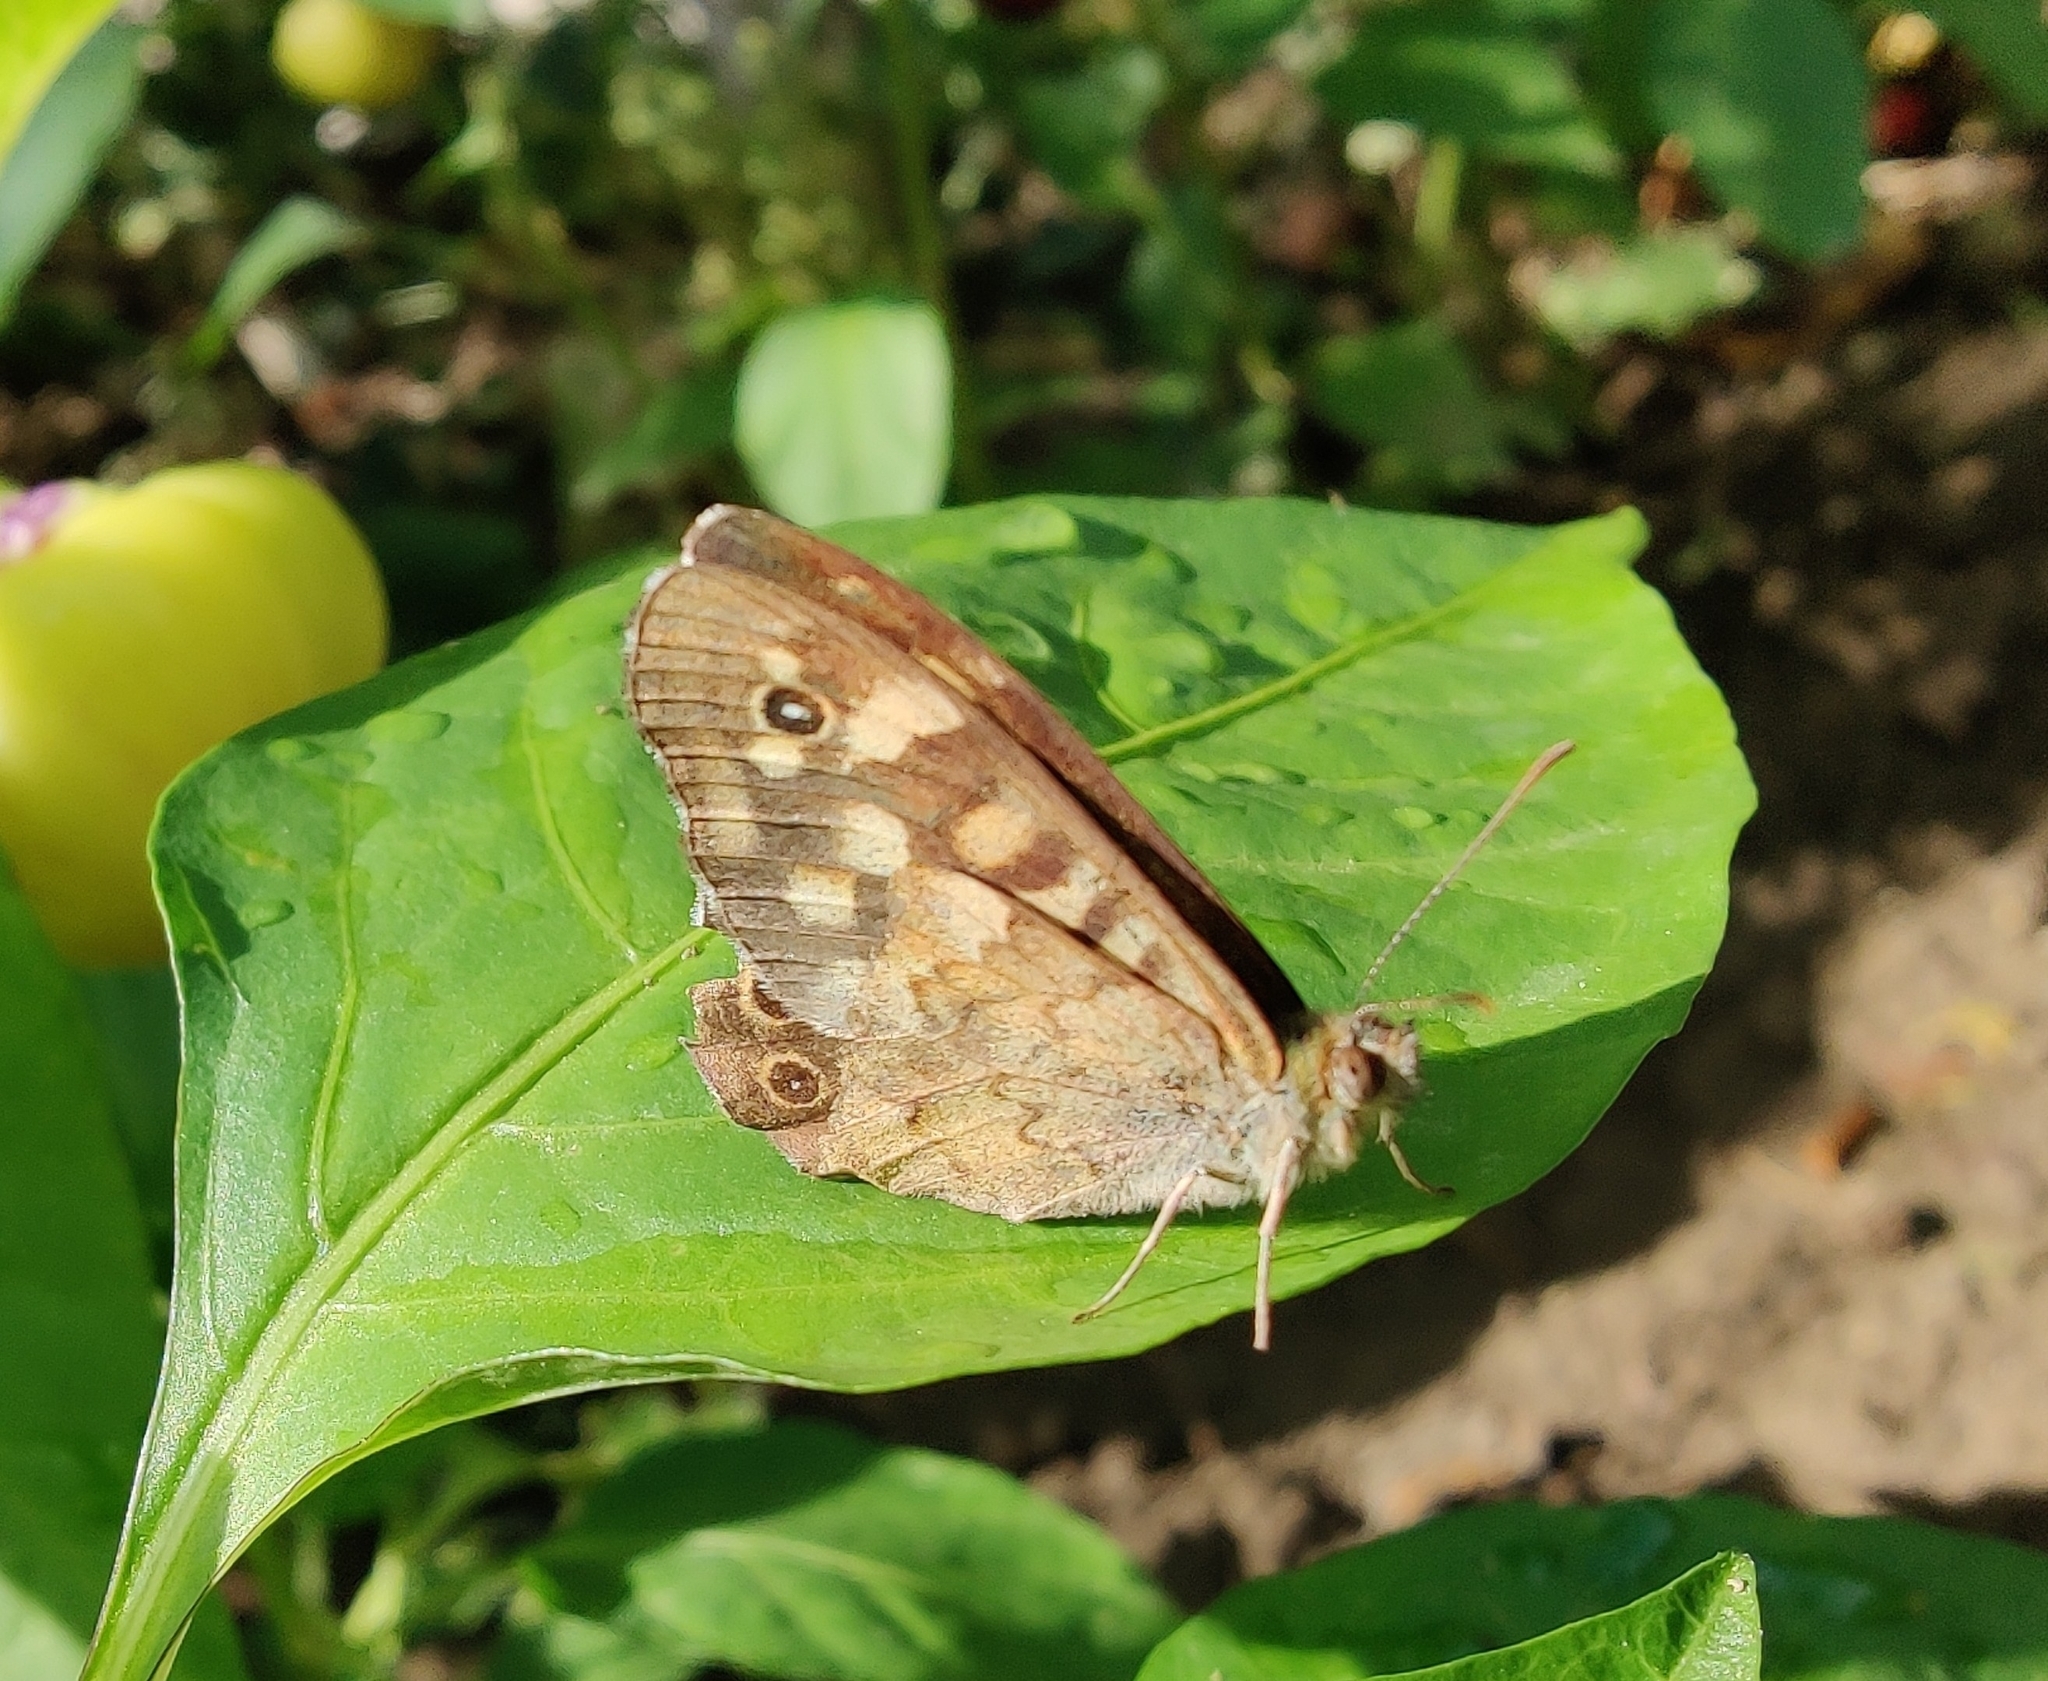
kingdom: Animalia
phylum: Arthropoda
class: Insecta
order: Lepidoptera
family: Nymphalidae
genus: Pararge
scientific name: Pararge aegeria
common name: Speckled wood
